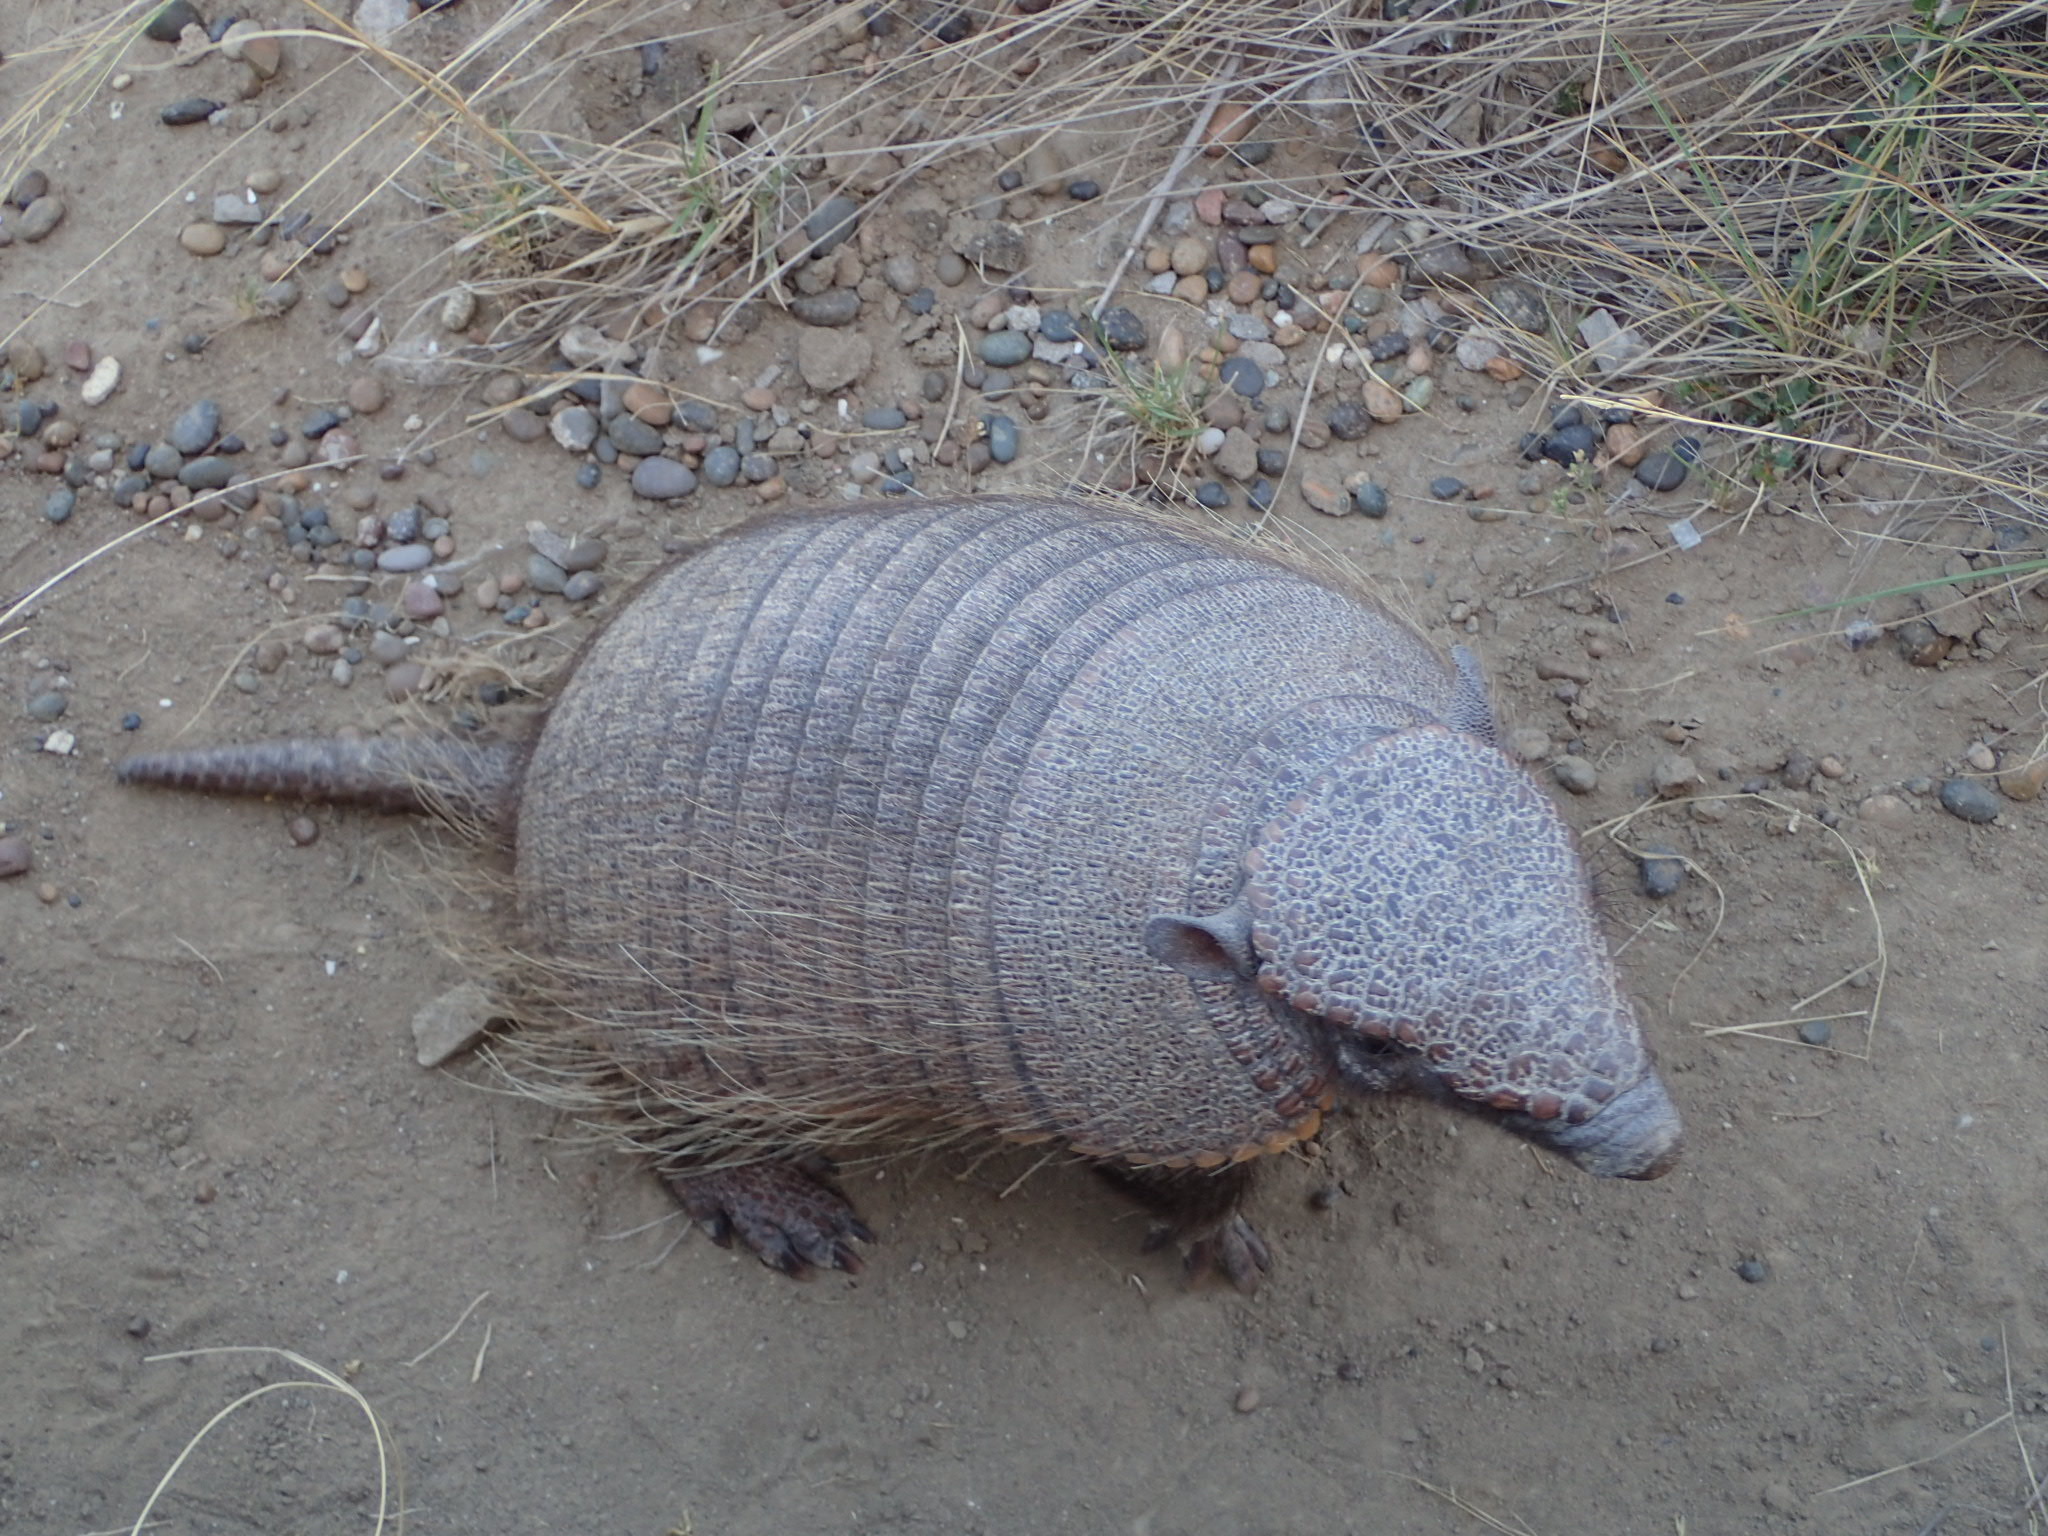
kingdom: Animalia
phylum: Chordata
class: Mammalia
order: Cingulata
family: Dasypodidae
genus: Chaetophractus
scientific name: Chaetophractus villosus
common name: Big hairy armadillo
